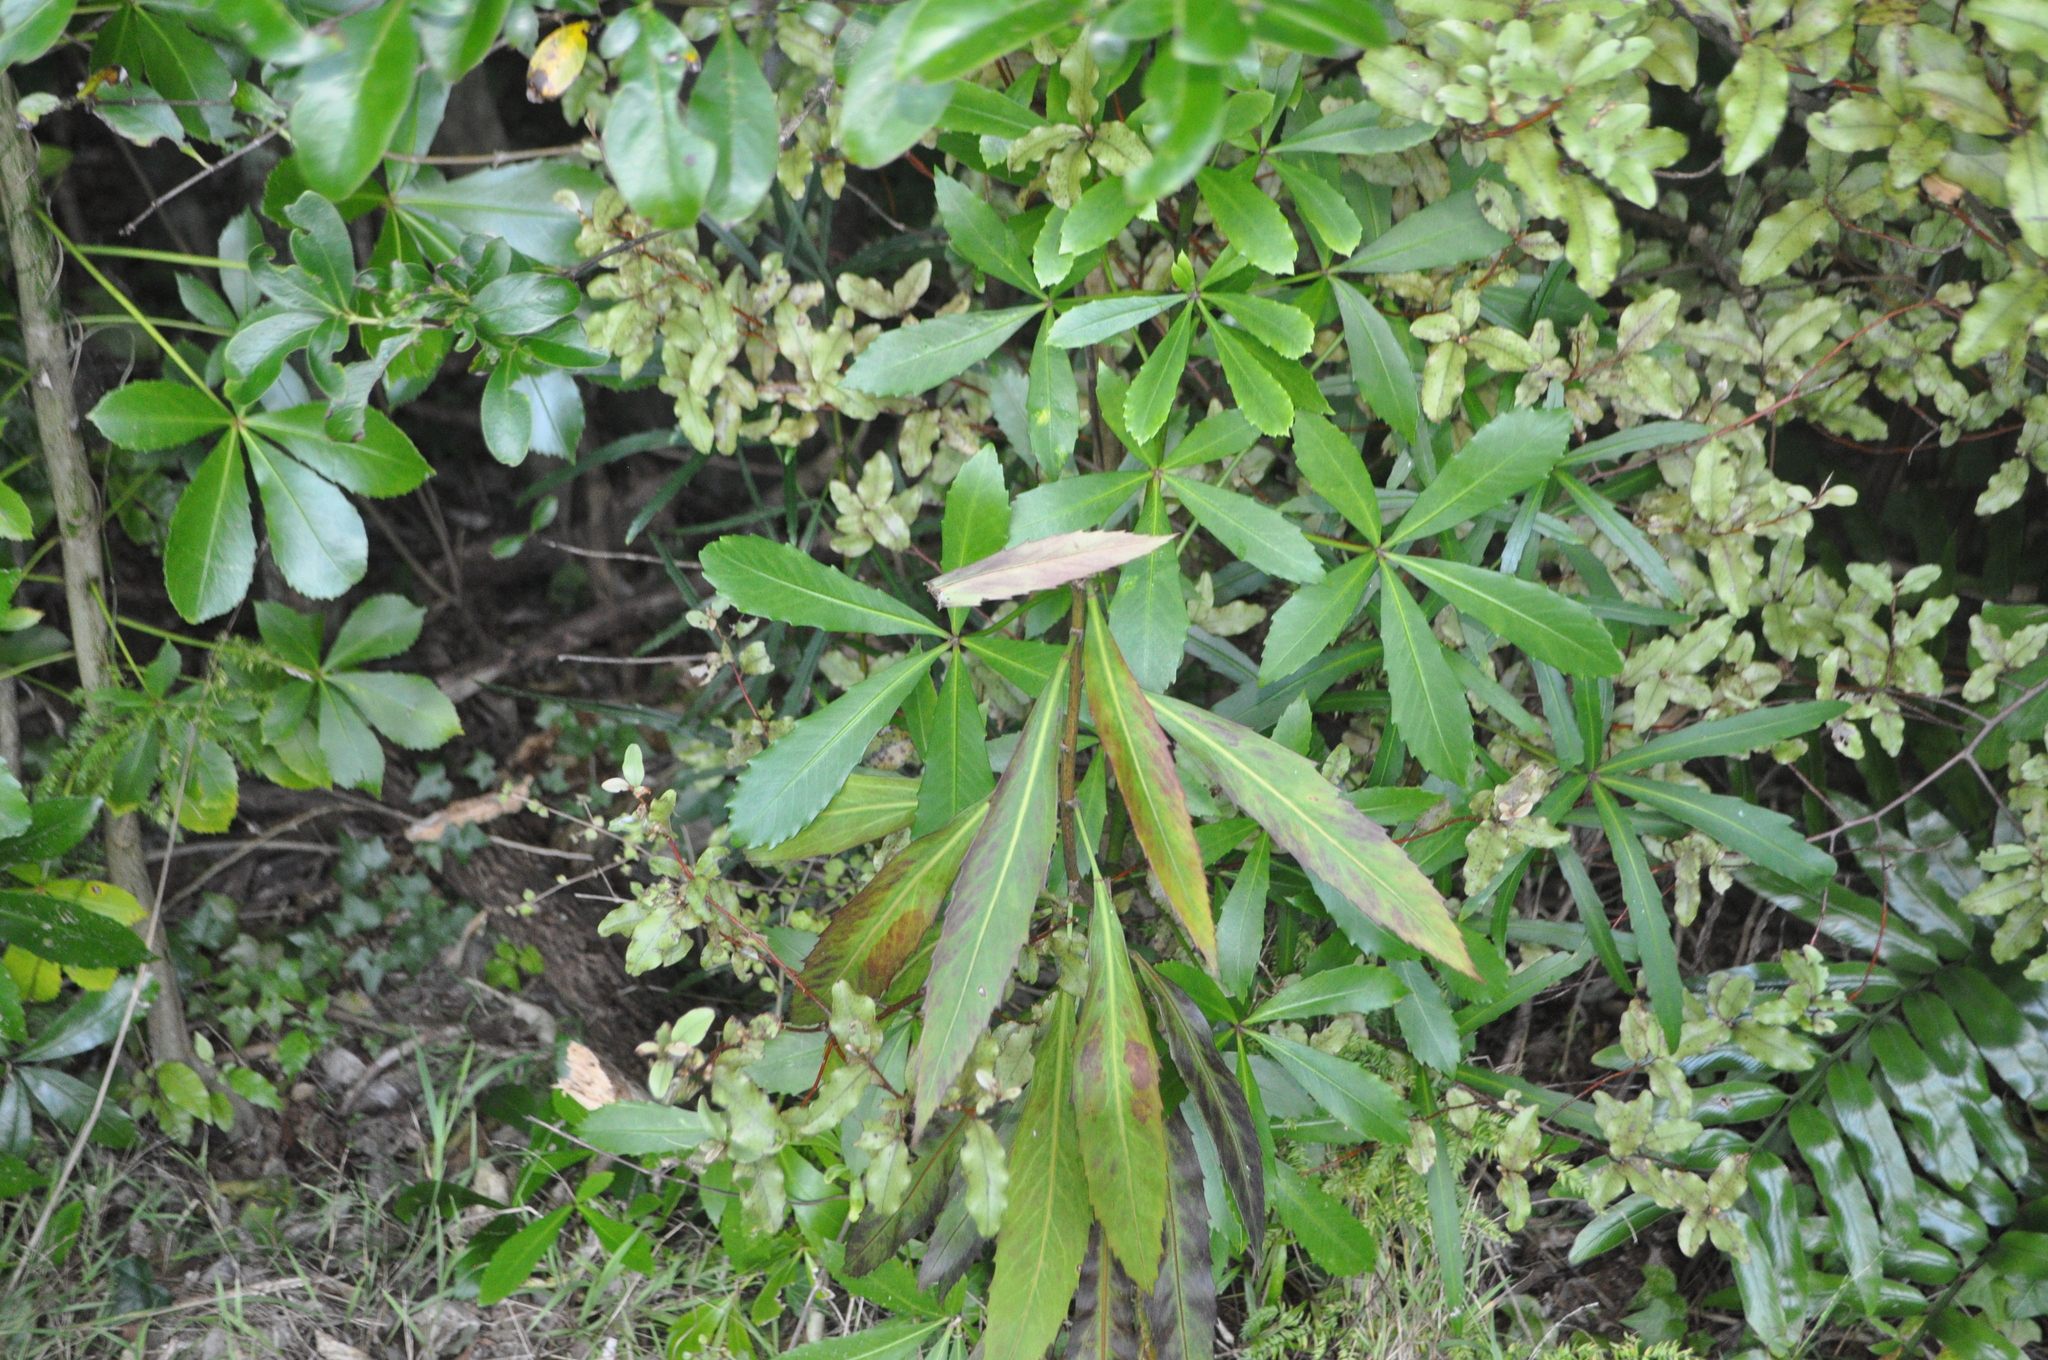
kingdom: Plantae
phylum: Tracheophyta
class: Magnoliopsida
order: Apiales
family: Araliaceae
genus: Pseudopanax
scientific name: Pseudopanax
